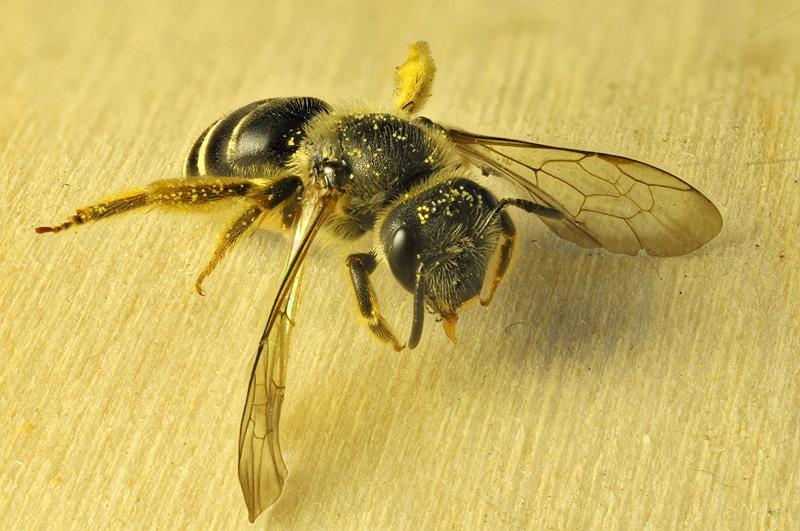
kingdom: Animalia
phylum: Arthropoda
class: Insecta
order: Hymenoptera
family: Halictidae
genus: Halictus
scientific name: Halictus rubicundus
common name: Orange-legged furrow bee
